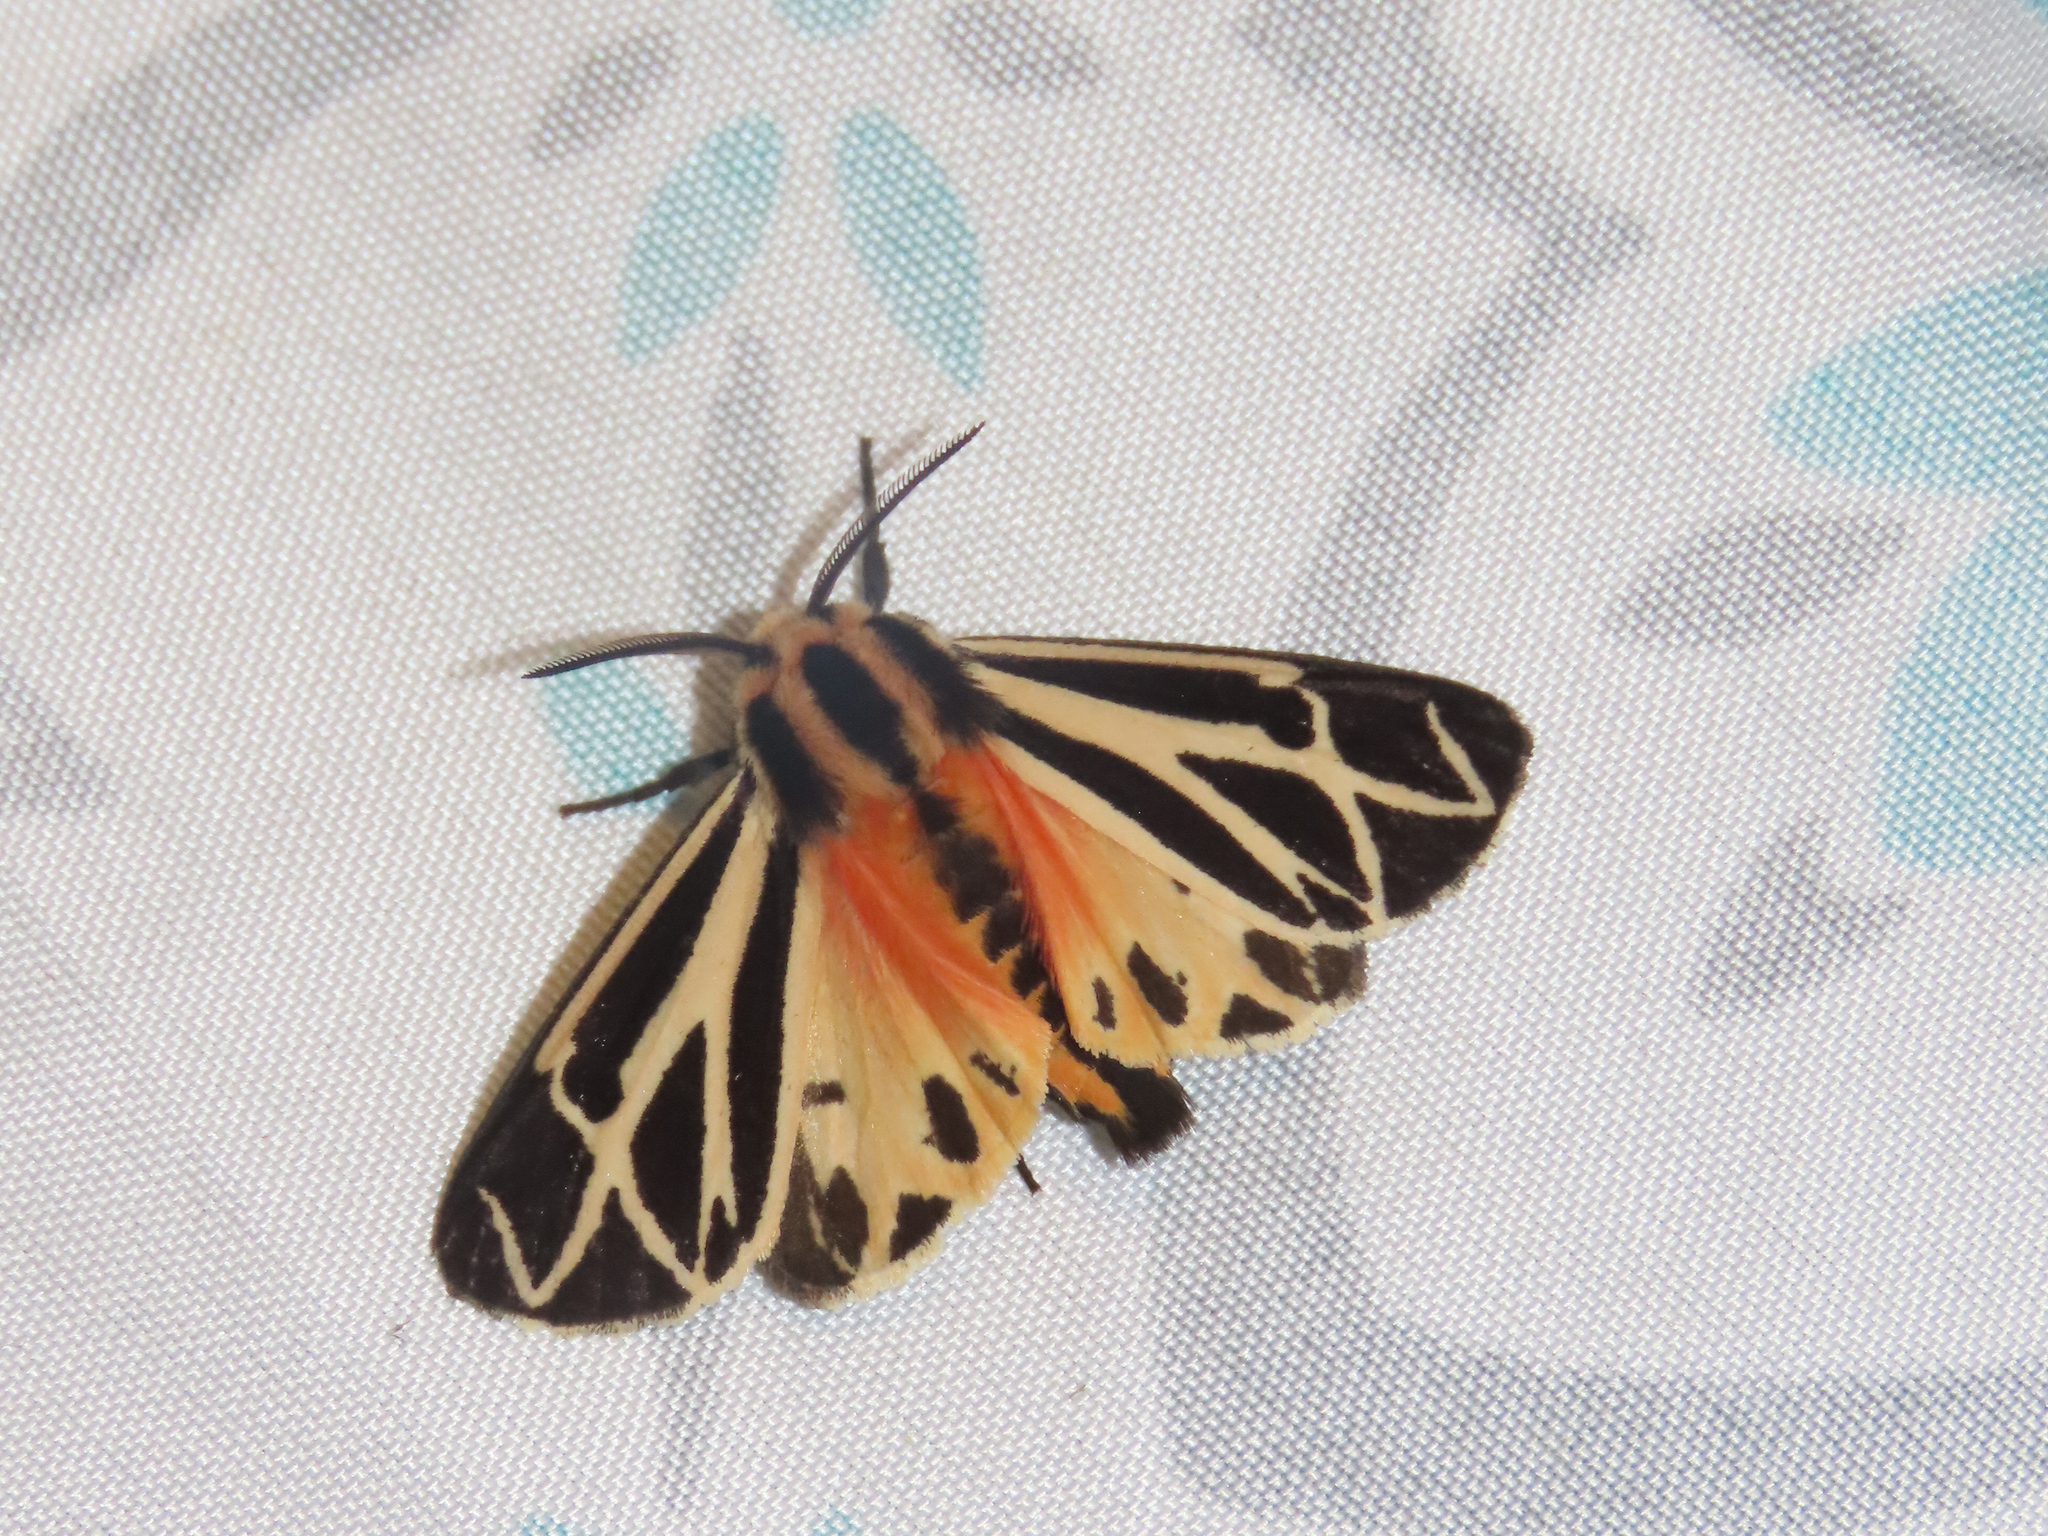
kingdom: Animalia
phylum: Arthropoda
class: Insecta
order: Lepidoptera
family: Erebidae
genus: Apantesis
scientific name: Apantesis phalerata
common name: Harnessed tiger moth
